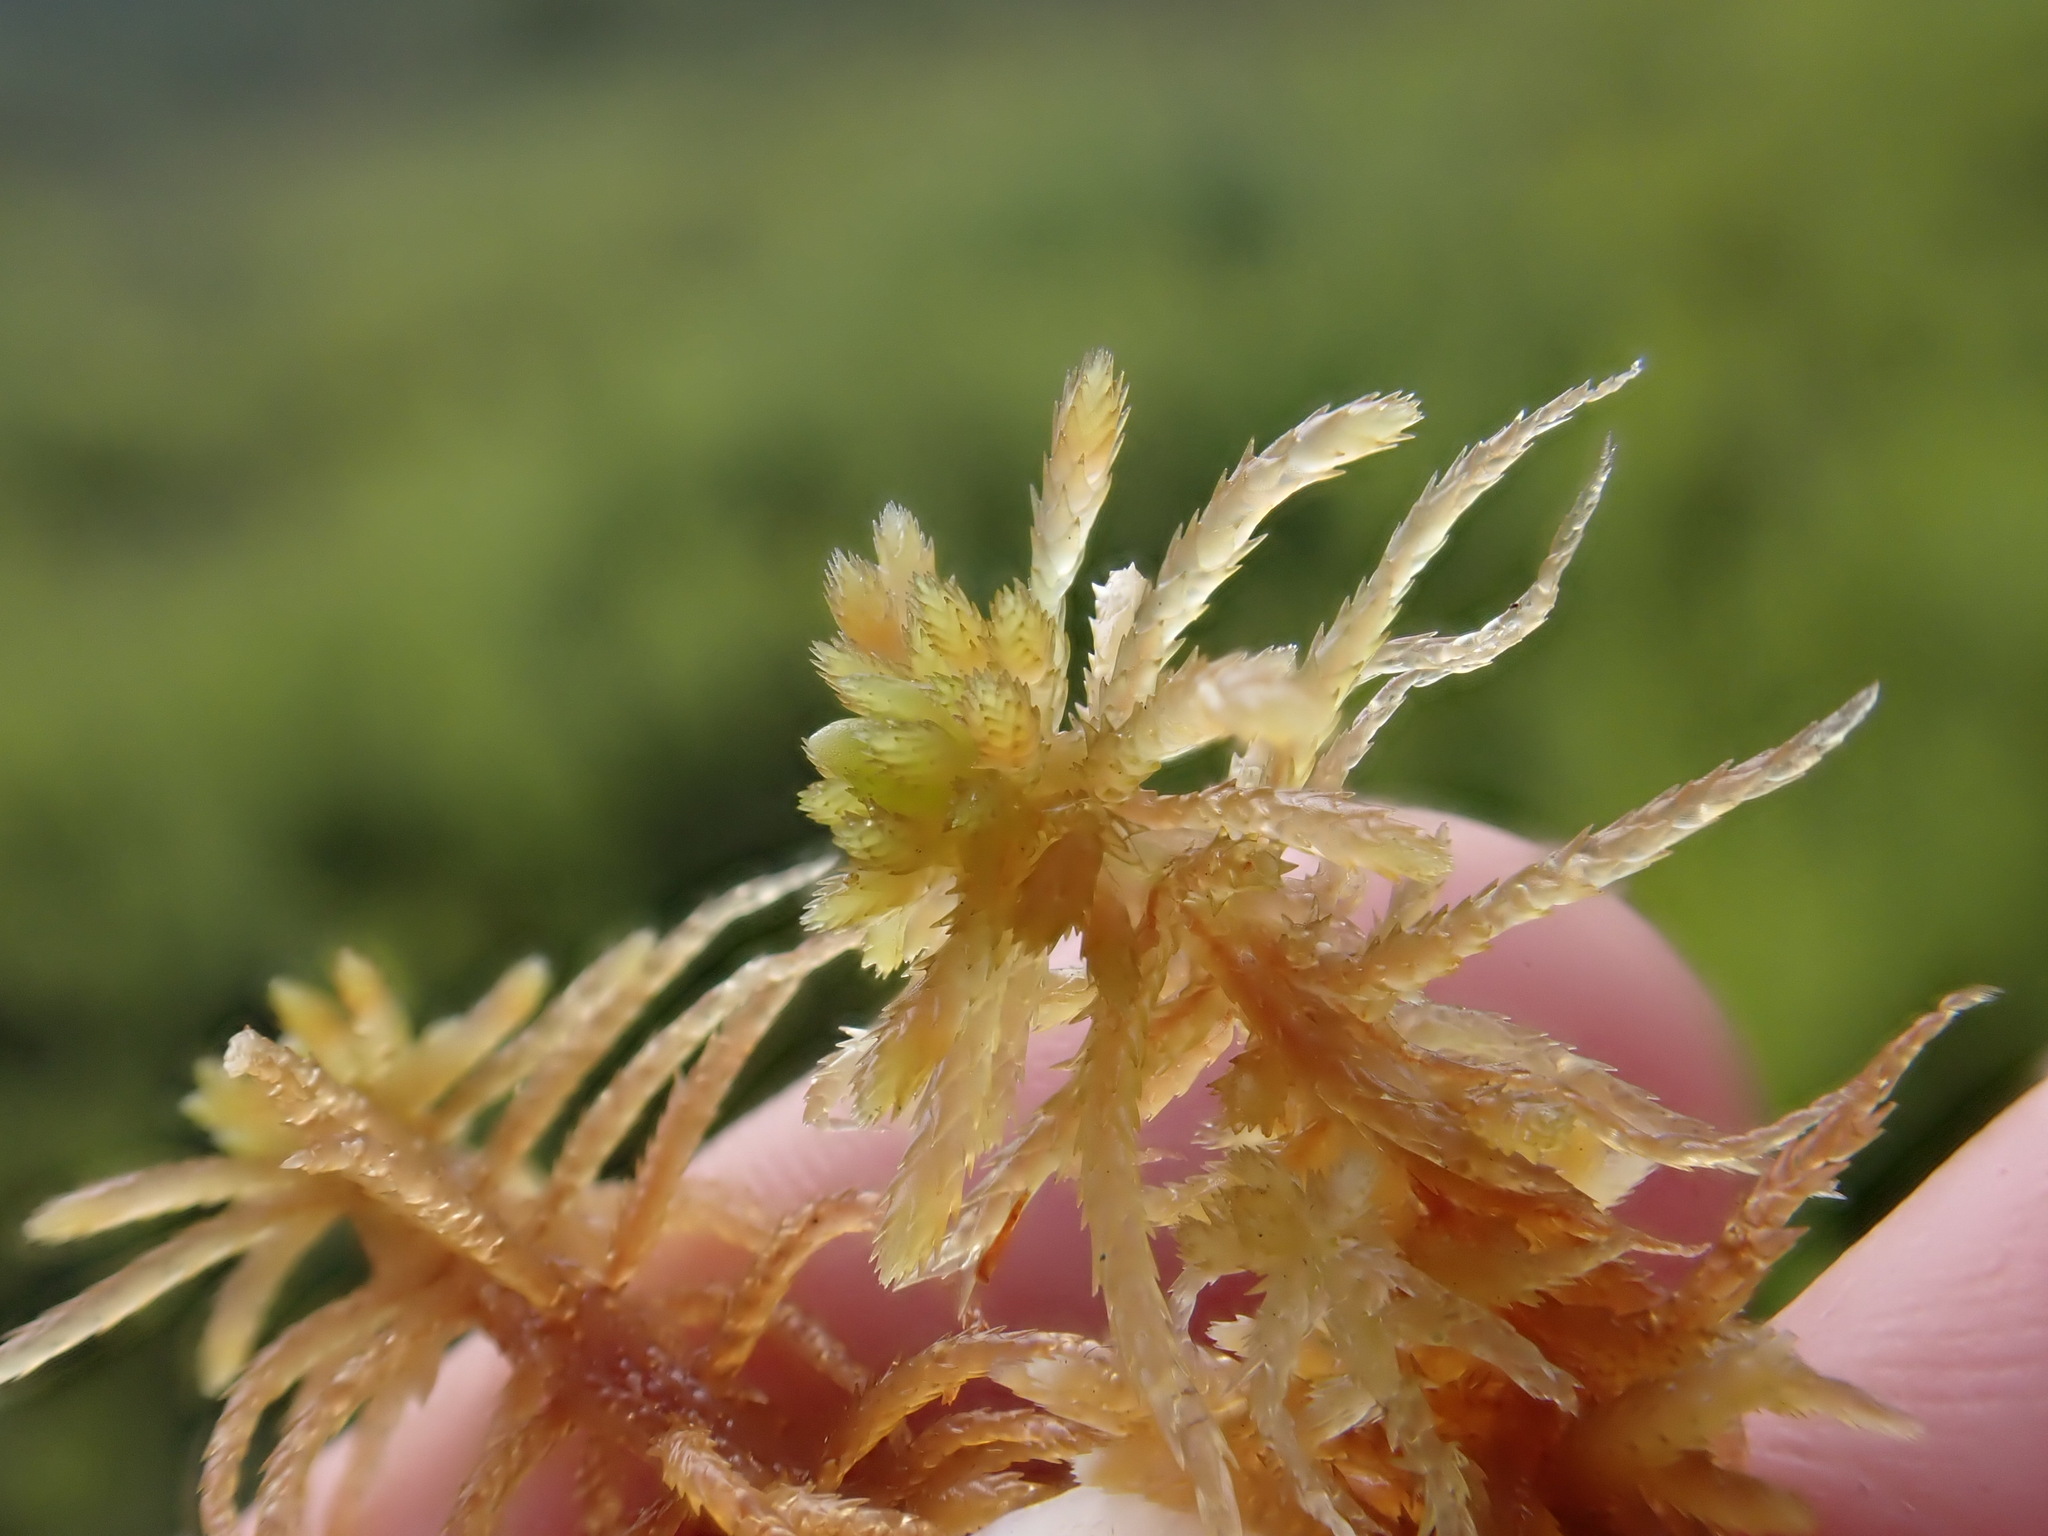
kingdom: Plantae
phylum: Bryophyta
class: Sphagnopsida
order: Sphagnales
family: Sphagnaceae
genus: Sphagnum
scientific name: Sphagnum teres
